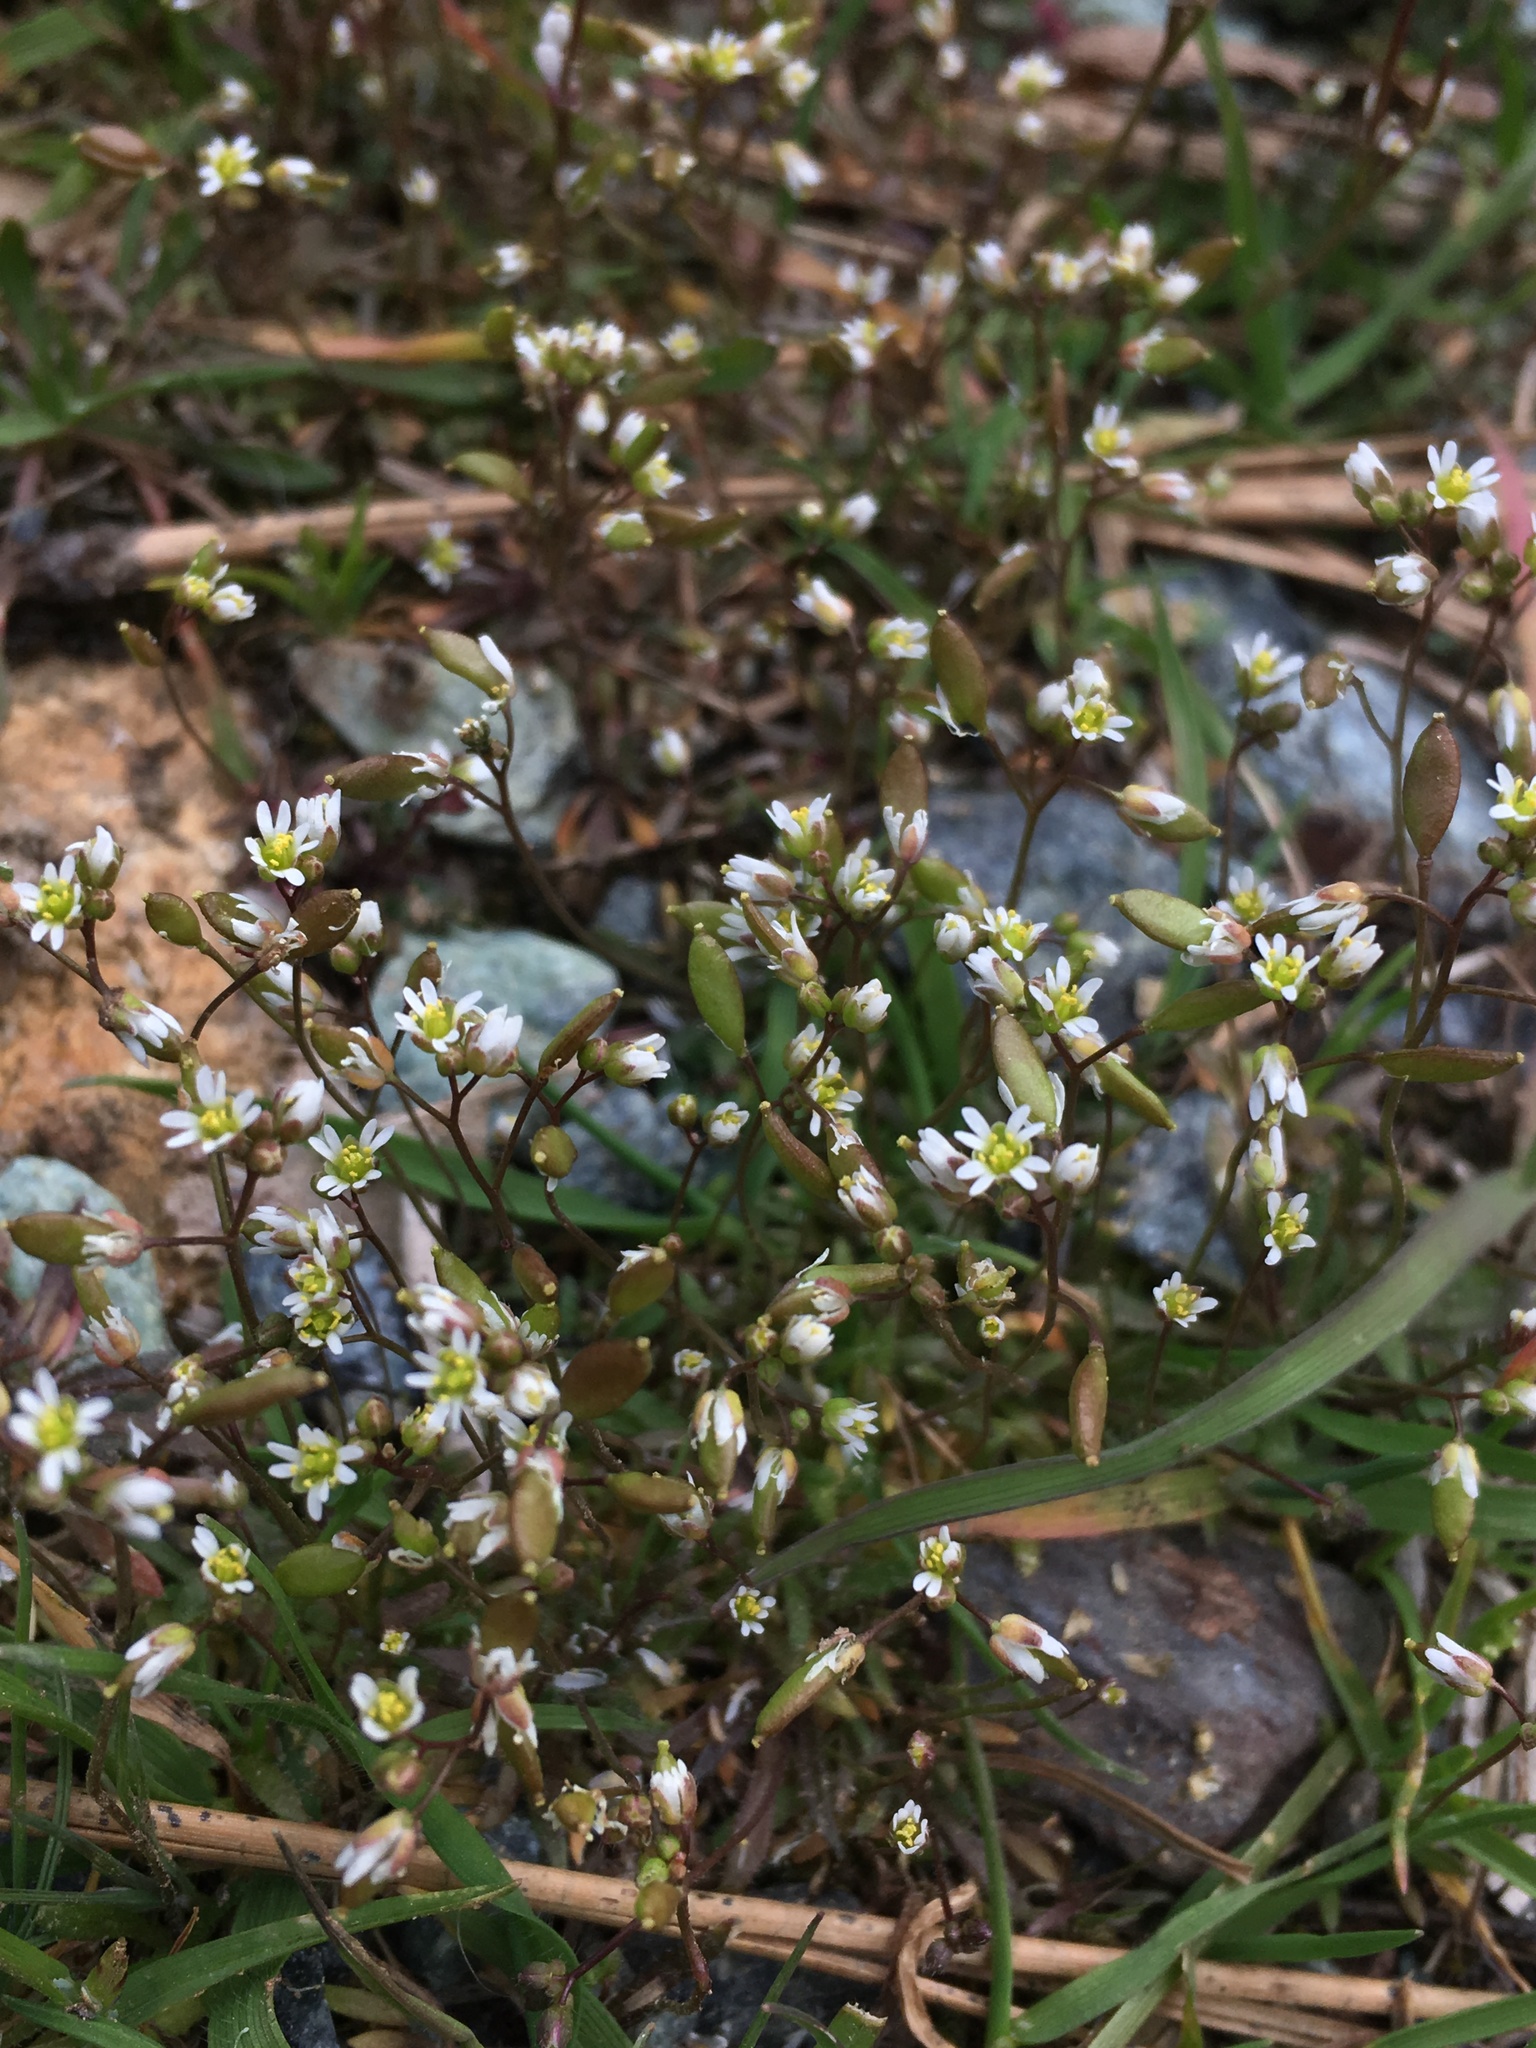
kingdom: Plantae
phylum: Tracheophyta
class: Magnoliopsida
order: Brassicales
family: Brassicaceae
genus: Draba
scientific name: Draba verna
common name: Spring draba
